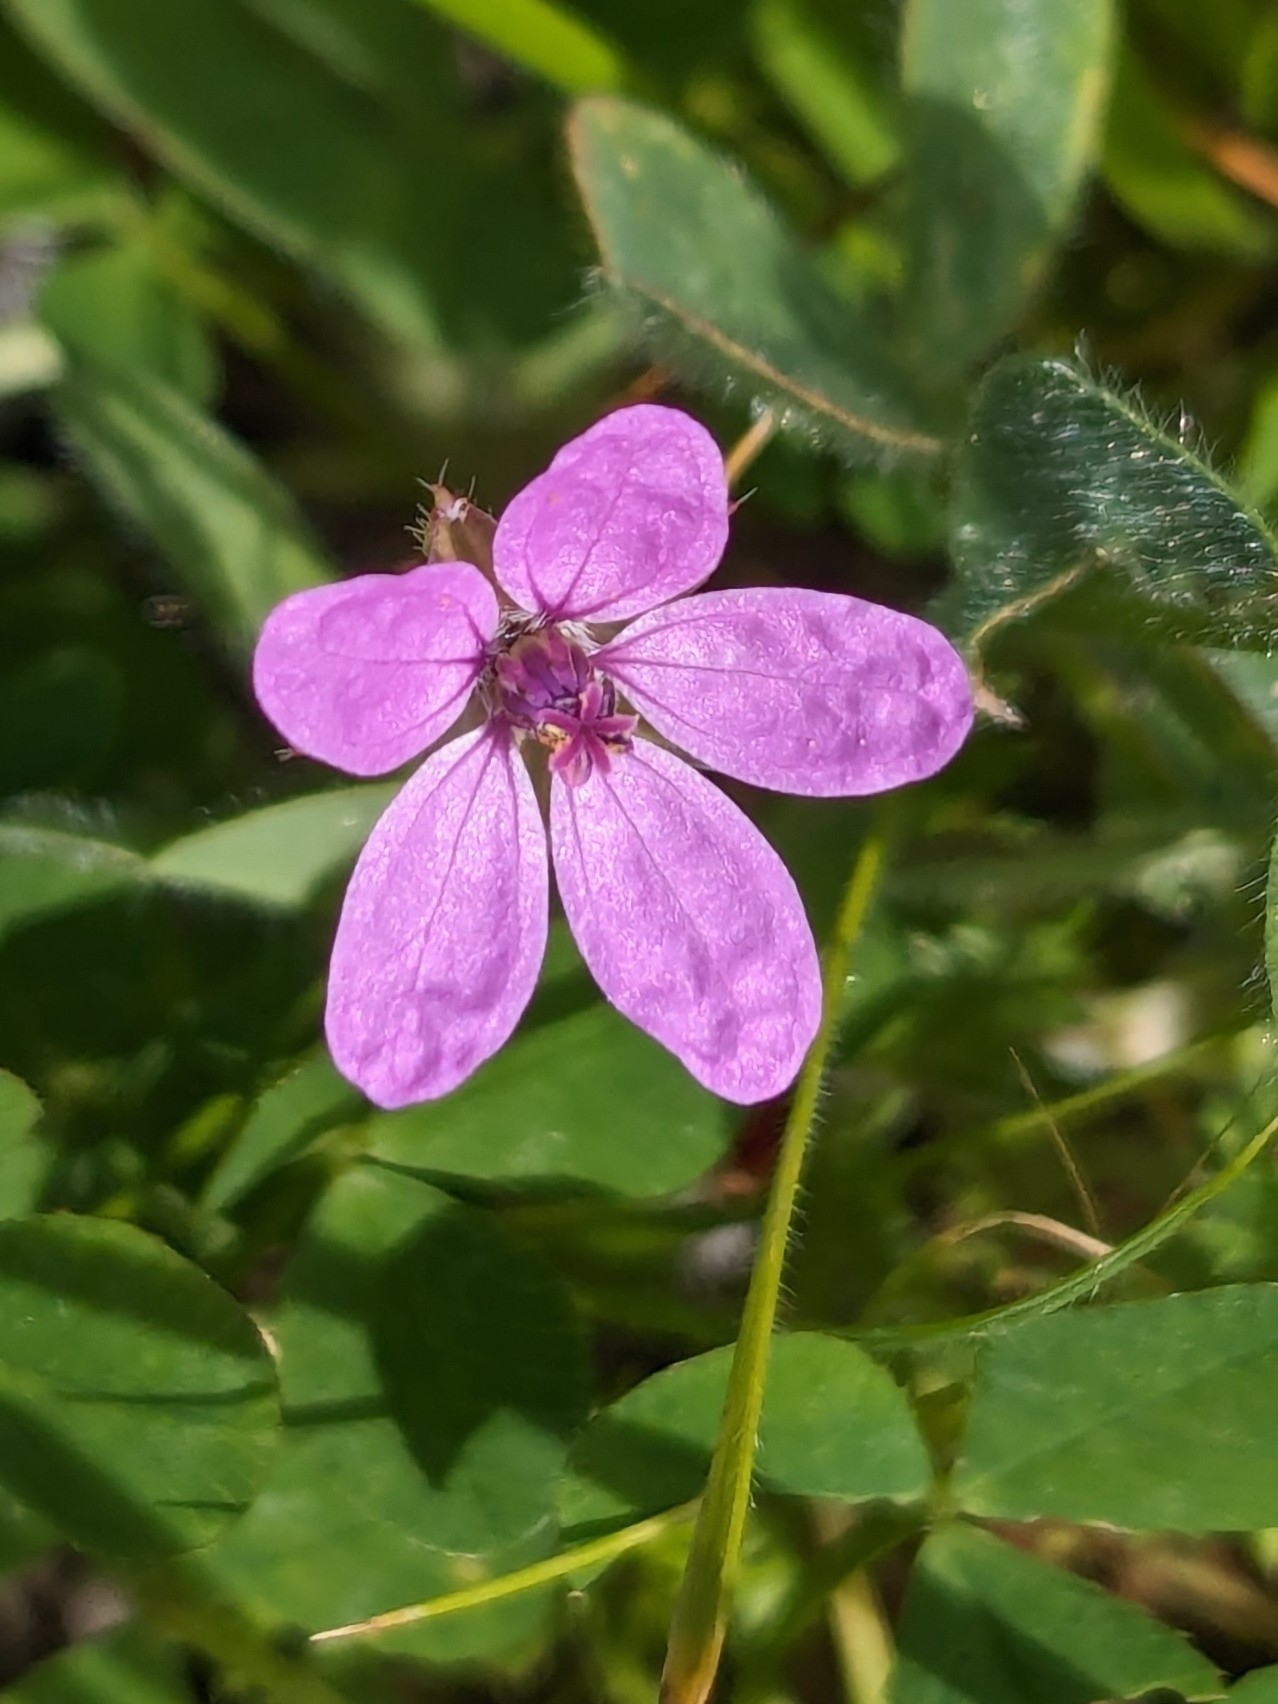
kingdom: Plantae
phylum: Tracheophyta
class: Magnoliopsida
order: Geraniales
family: Geraniaceae
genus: Erodium
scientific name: Erodium cicutarium
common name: Common stork's-bill
